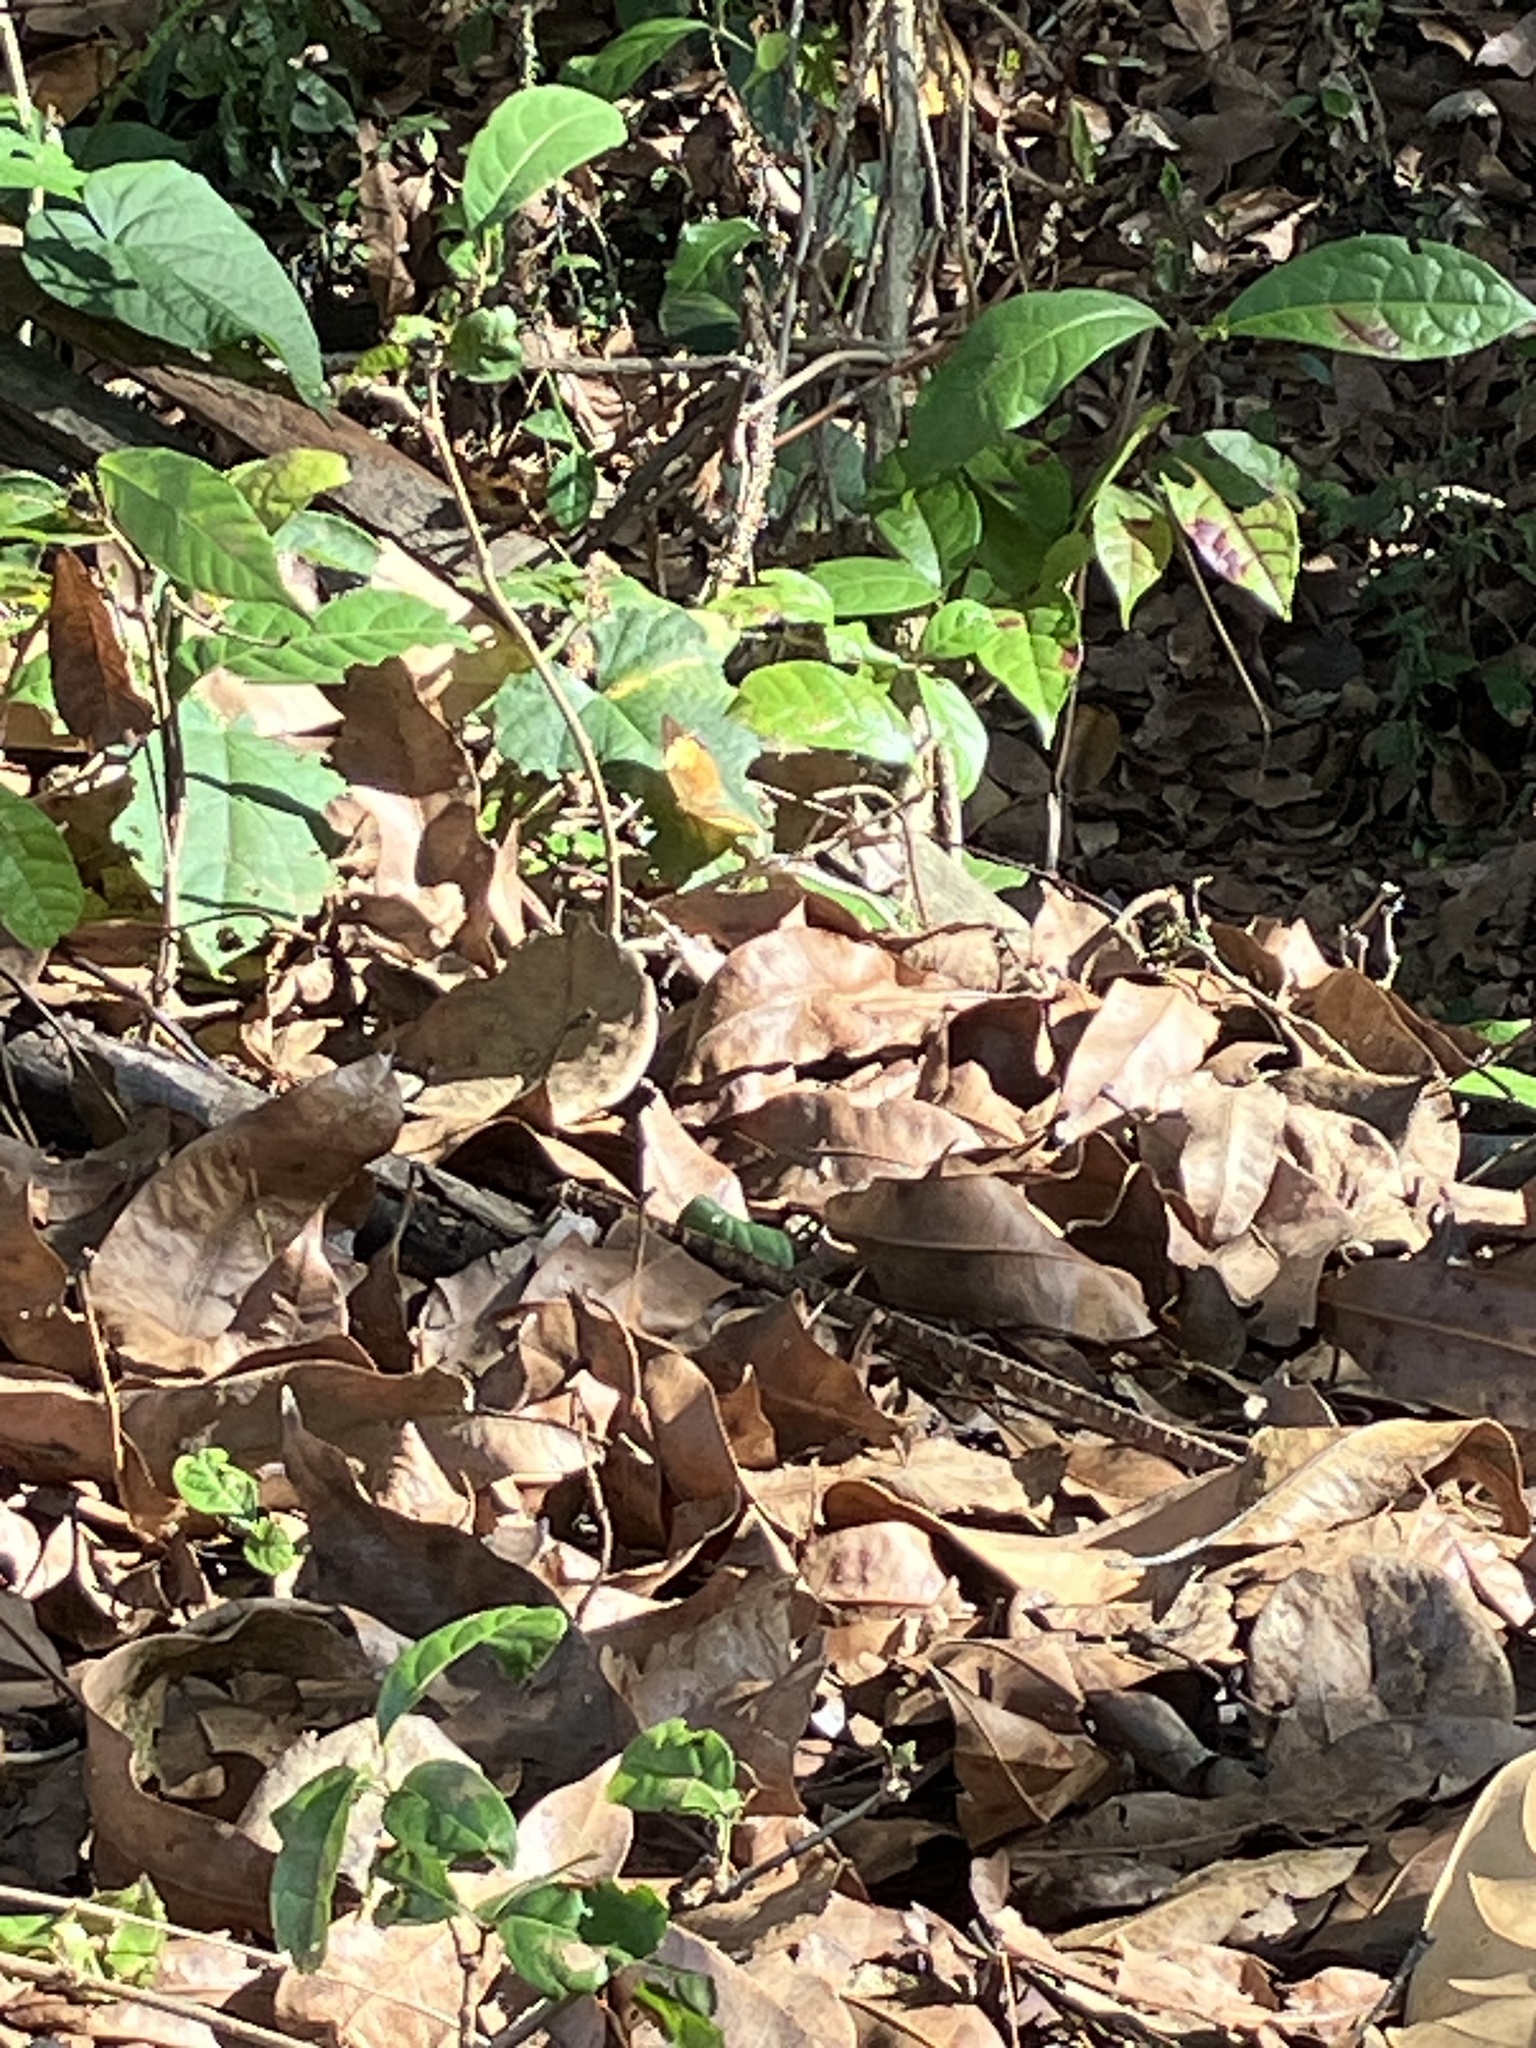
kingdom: Animalia
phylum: Arthropoda
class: Insecta
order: Lepidoptera
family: Nymphalidae
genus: Cupha
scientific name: Cupha erymanthis
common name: Rustic
